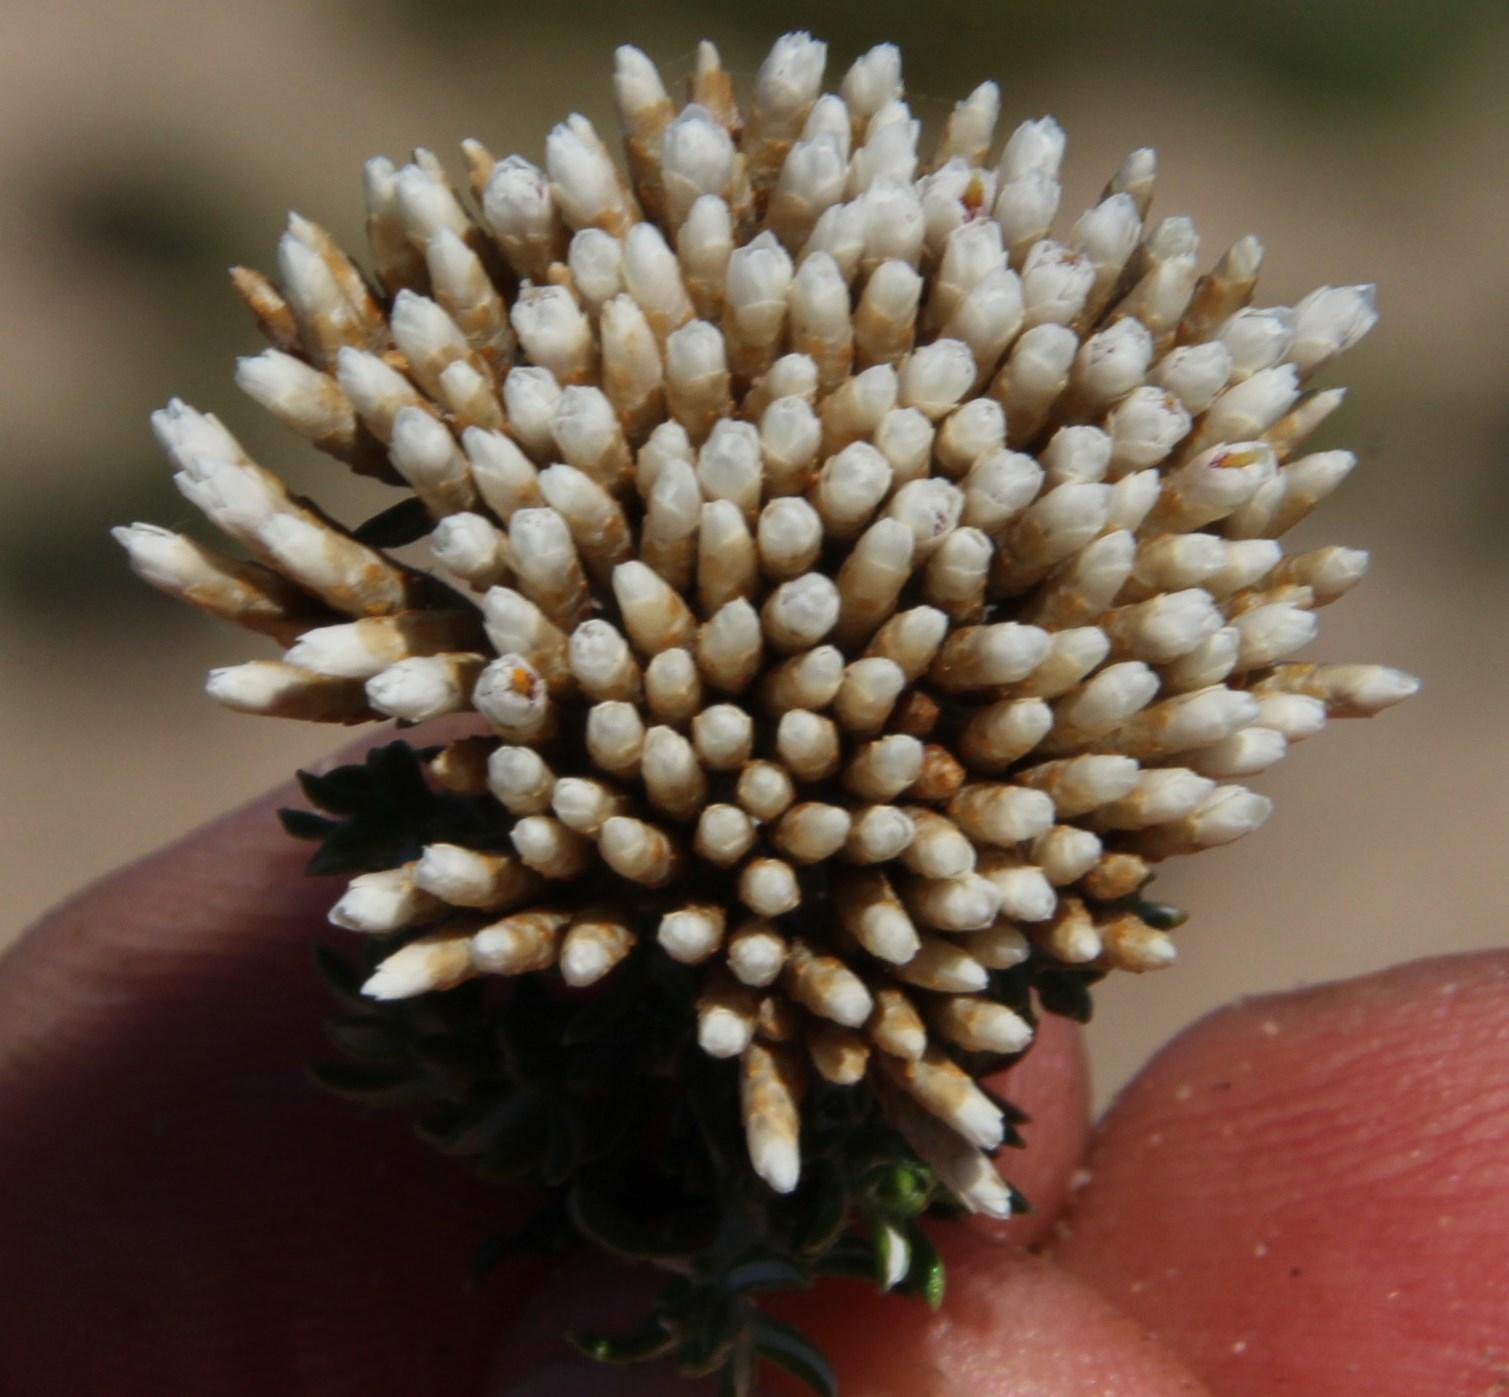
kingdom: Plantae
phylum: Tracheophyta
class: Magnoliopsida
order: Asterales
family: Asteraceae
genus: Metalasia
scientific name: Metalasia muricata
